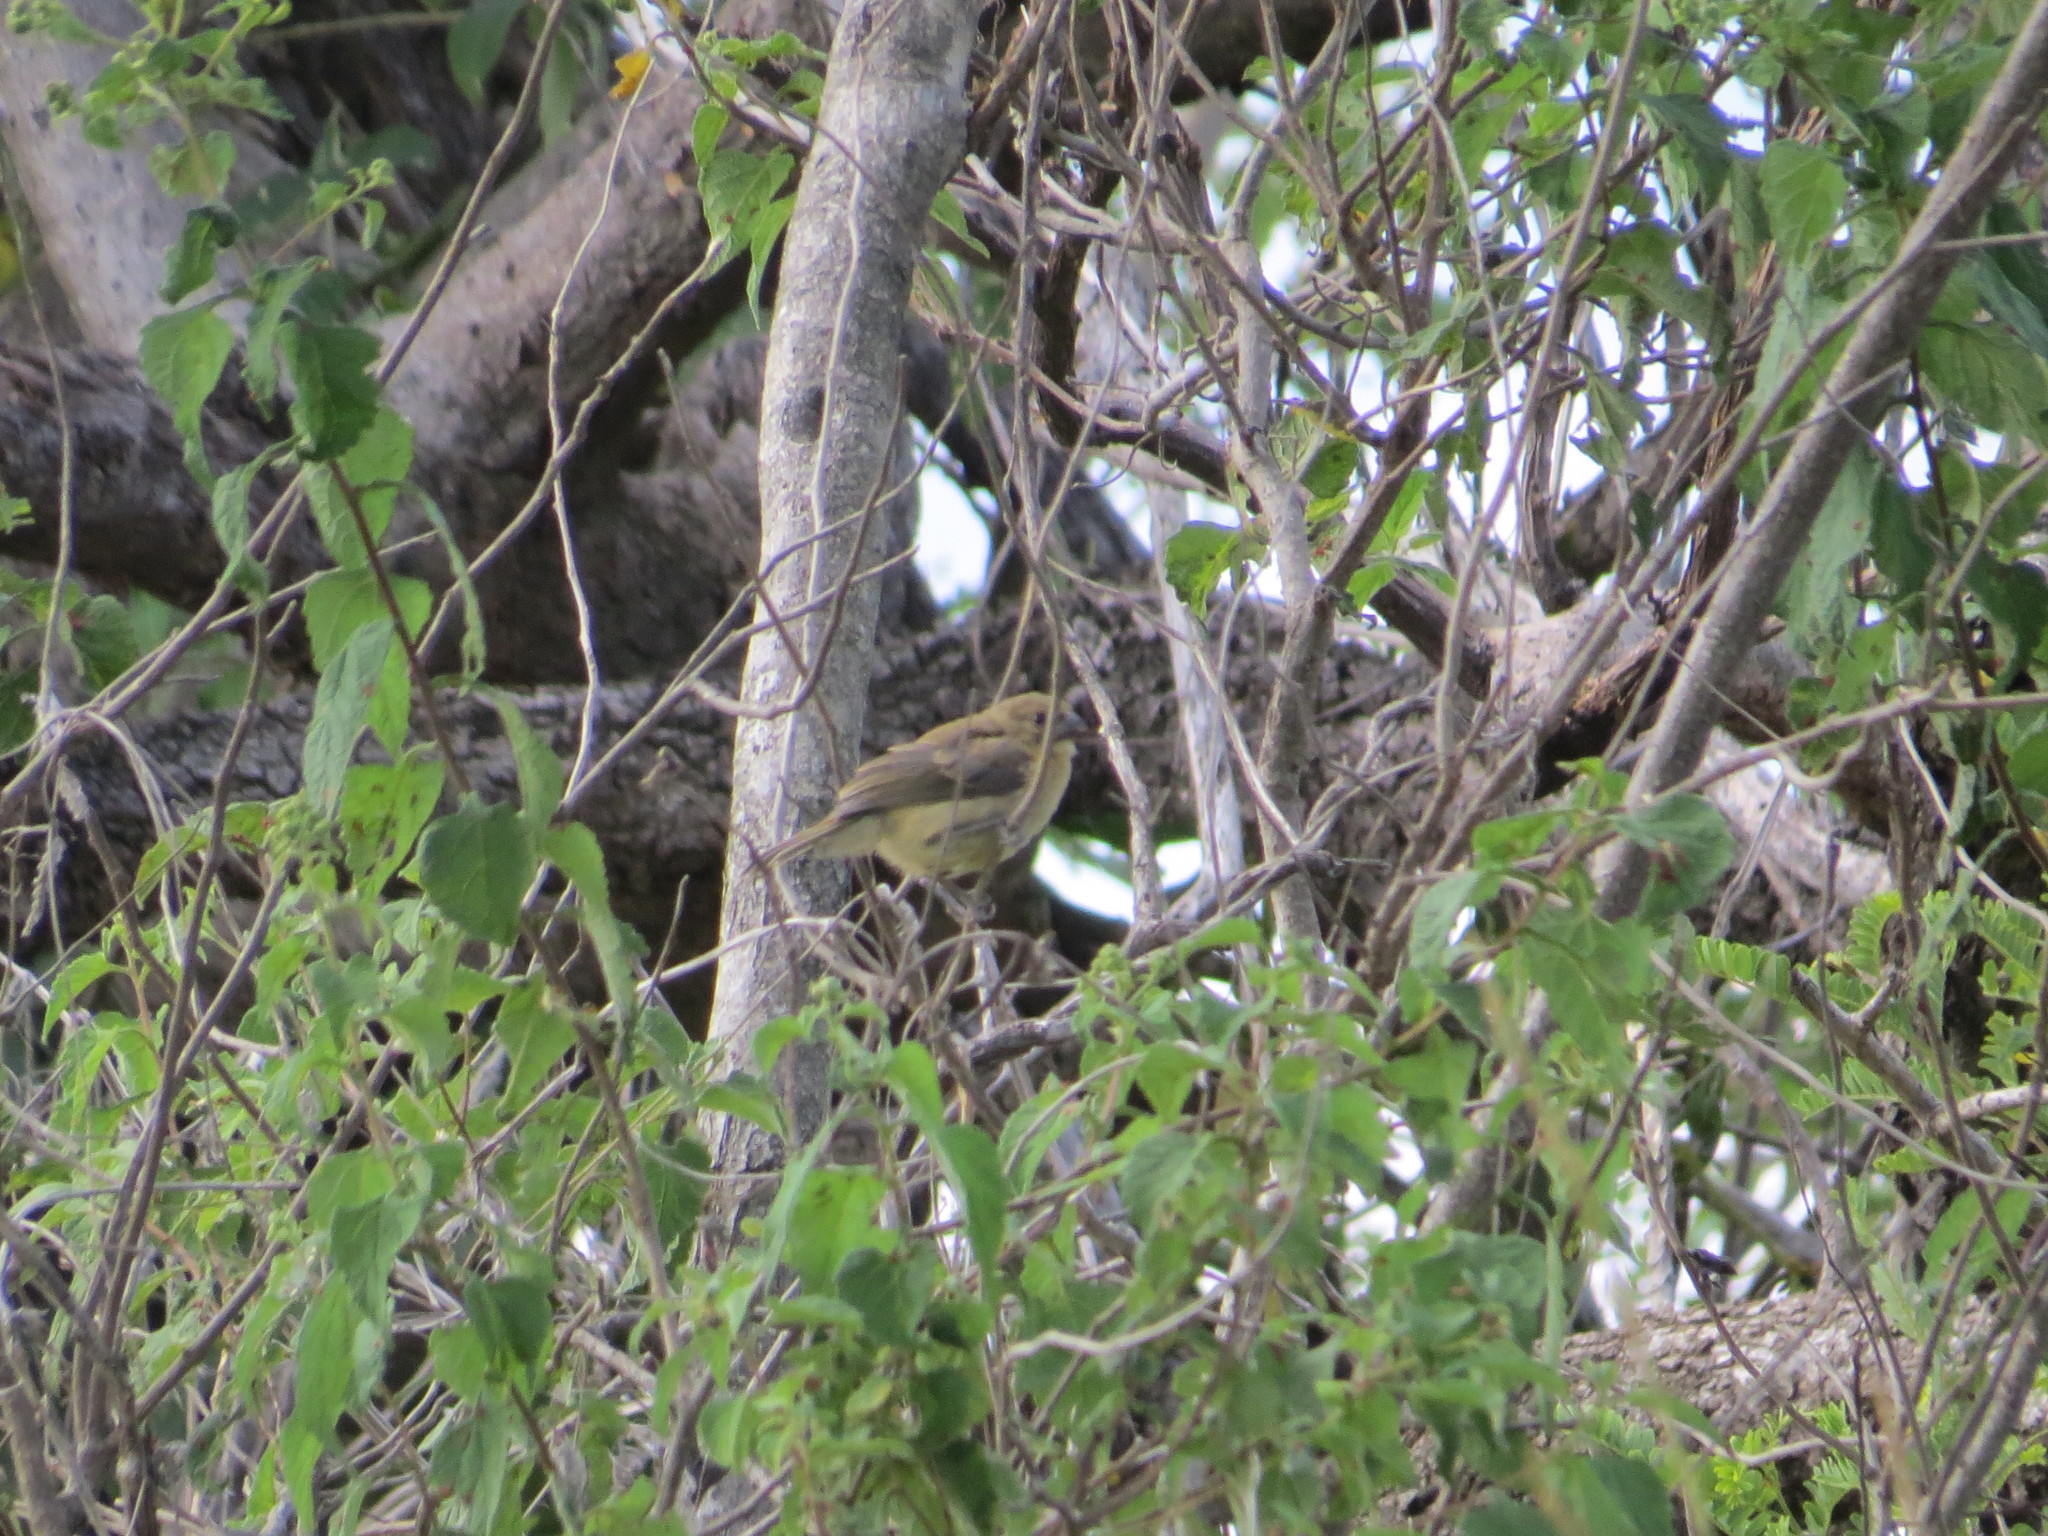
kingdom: Animalia
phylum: Chordata
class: Aves
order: Passeriformes
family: Thraupidae
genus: Sporophila
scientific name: Sporophila torqueola
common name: White-collared seedeater
